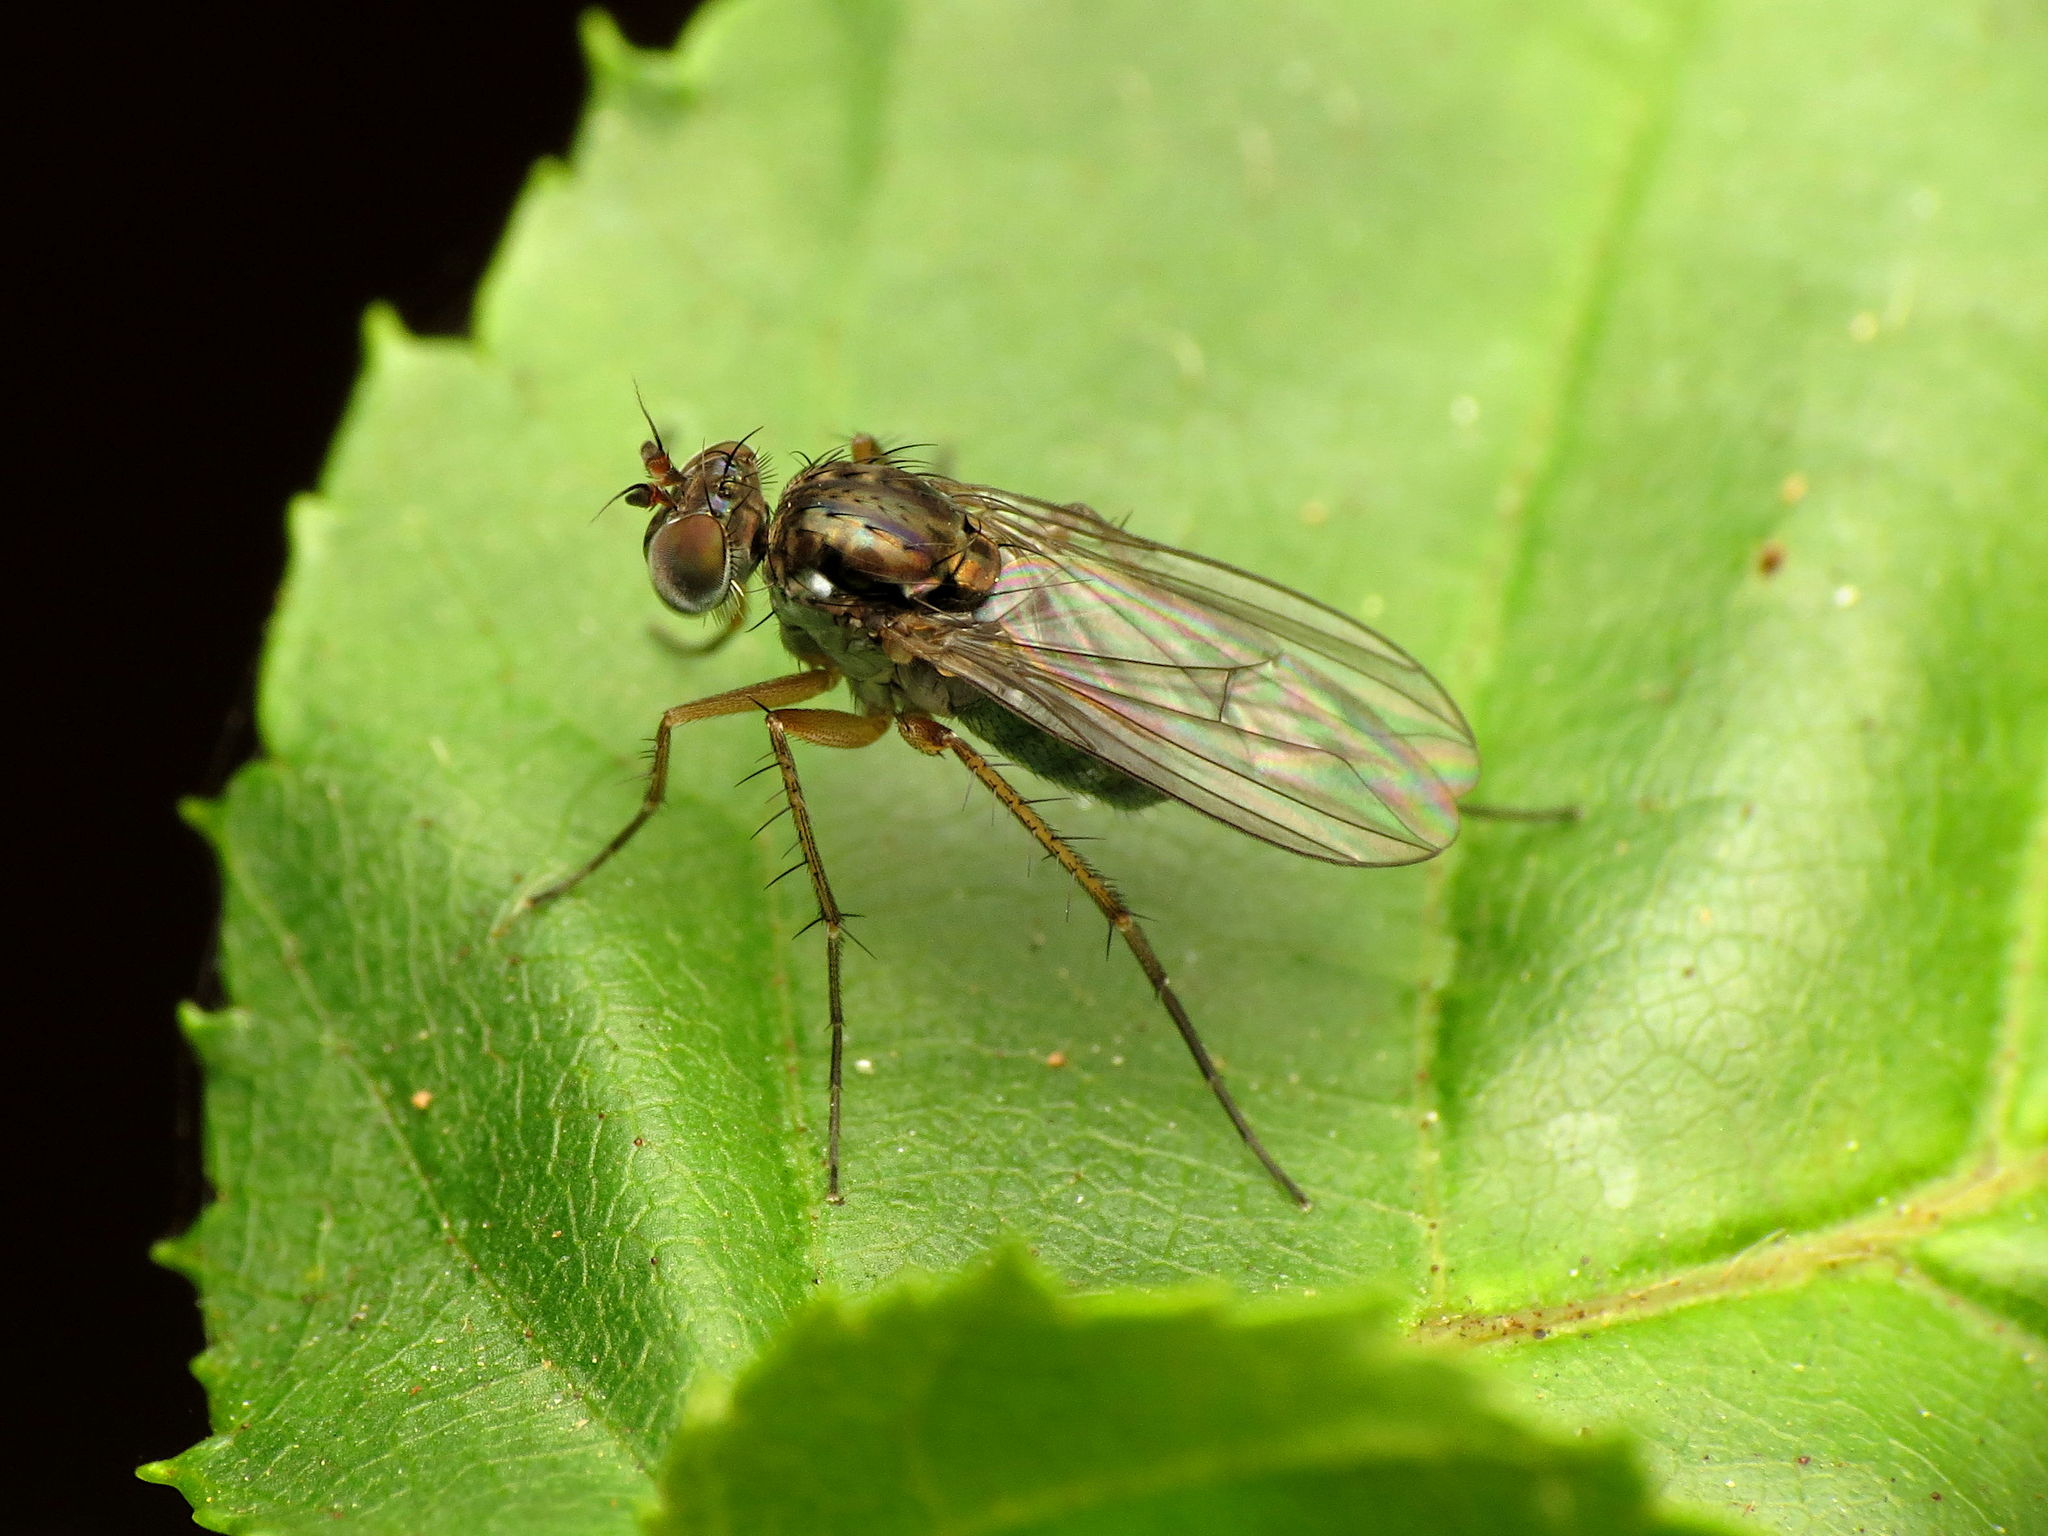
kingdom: Animalia
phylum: Arthropoda
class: Insecta
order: Diptera
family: Dolichopodidae
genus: Pelastoneurus
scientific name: Pelastoneurus vagans
